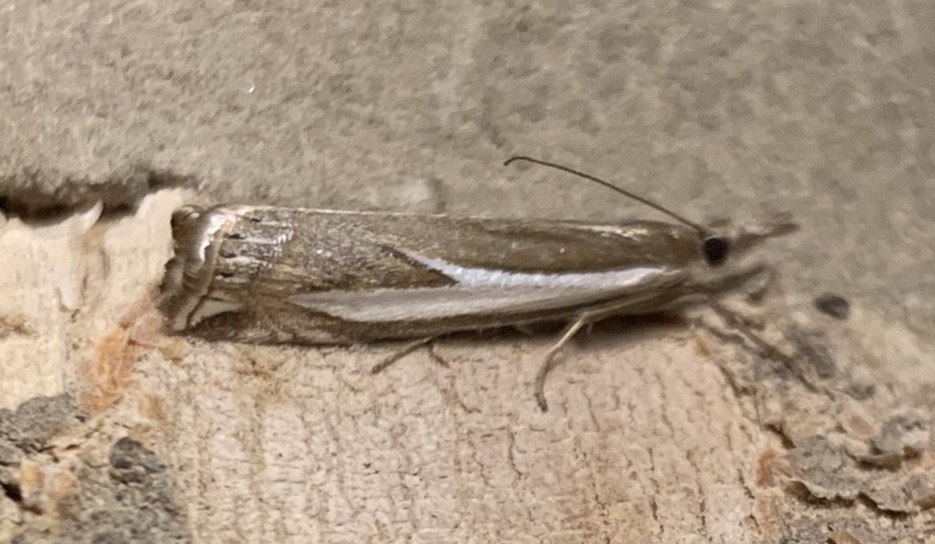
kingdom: Animalia
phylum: Arthropoda
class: Insecta
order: Lepidoptera
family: Crambidae
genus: Crambus
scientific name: Crambus hamella
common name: Dark grass-veneer
